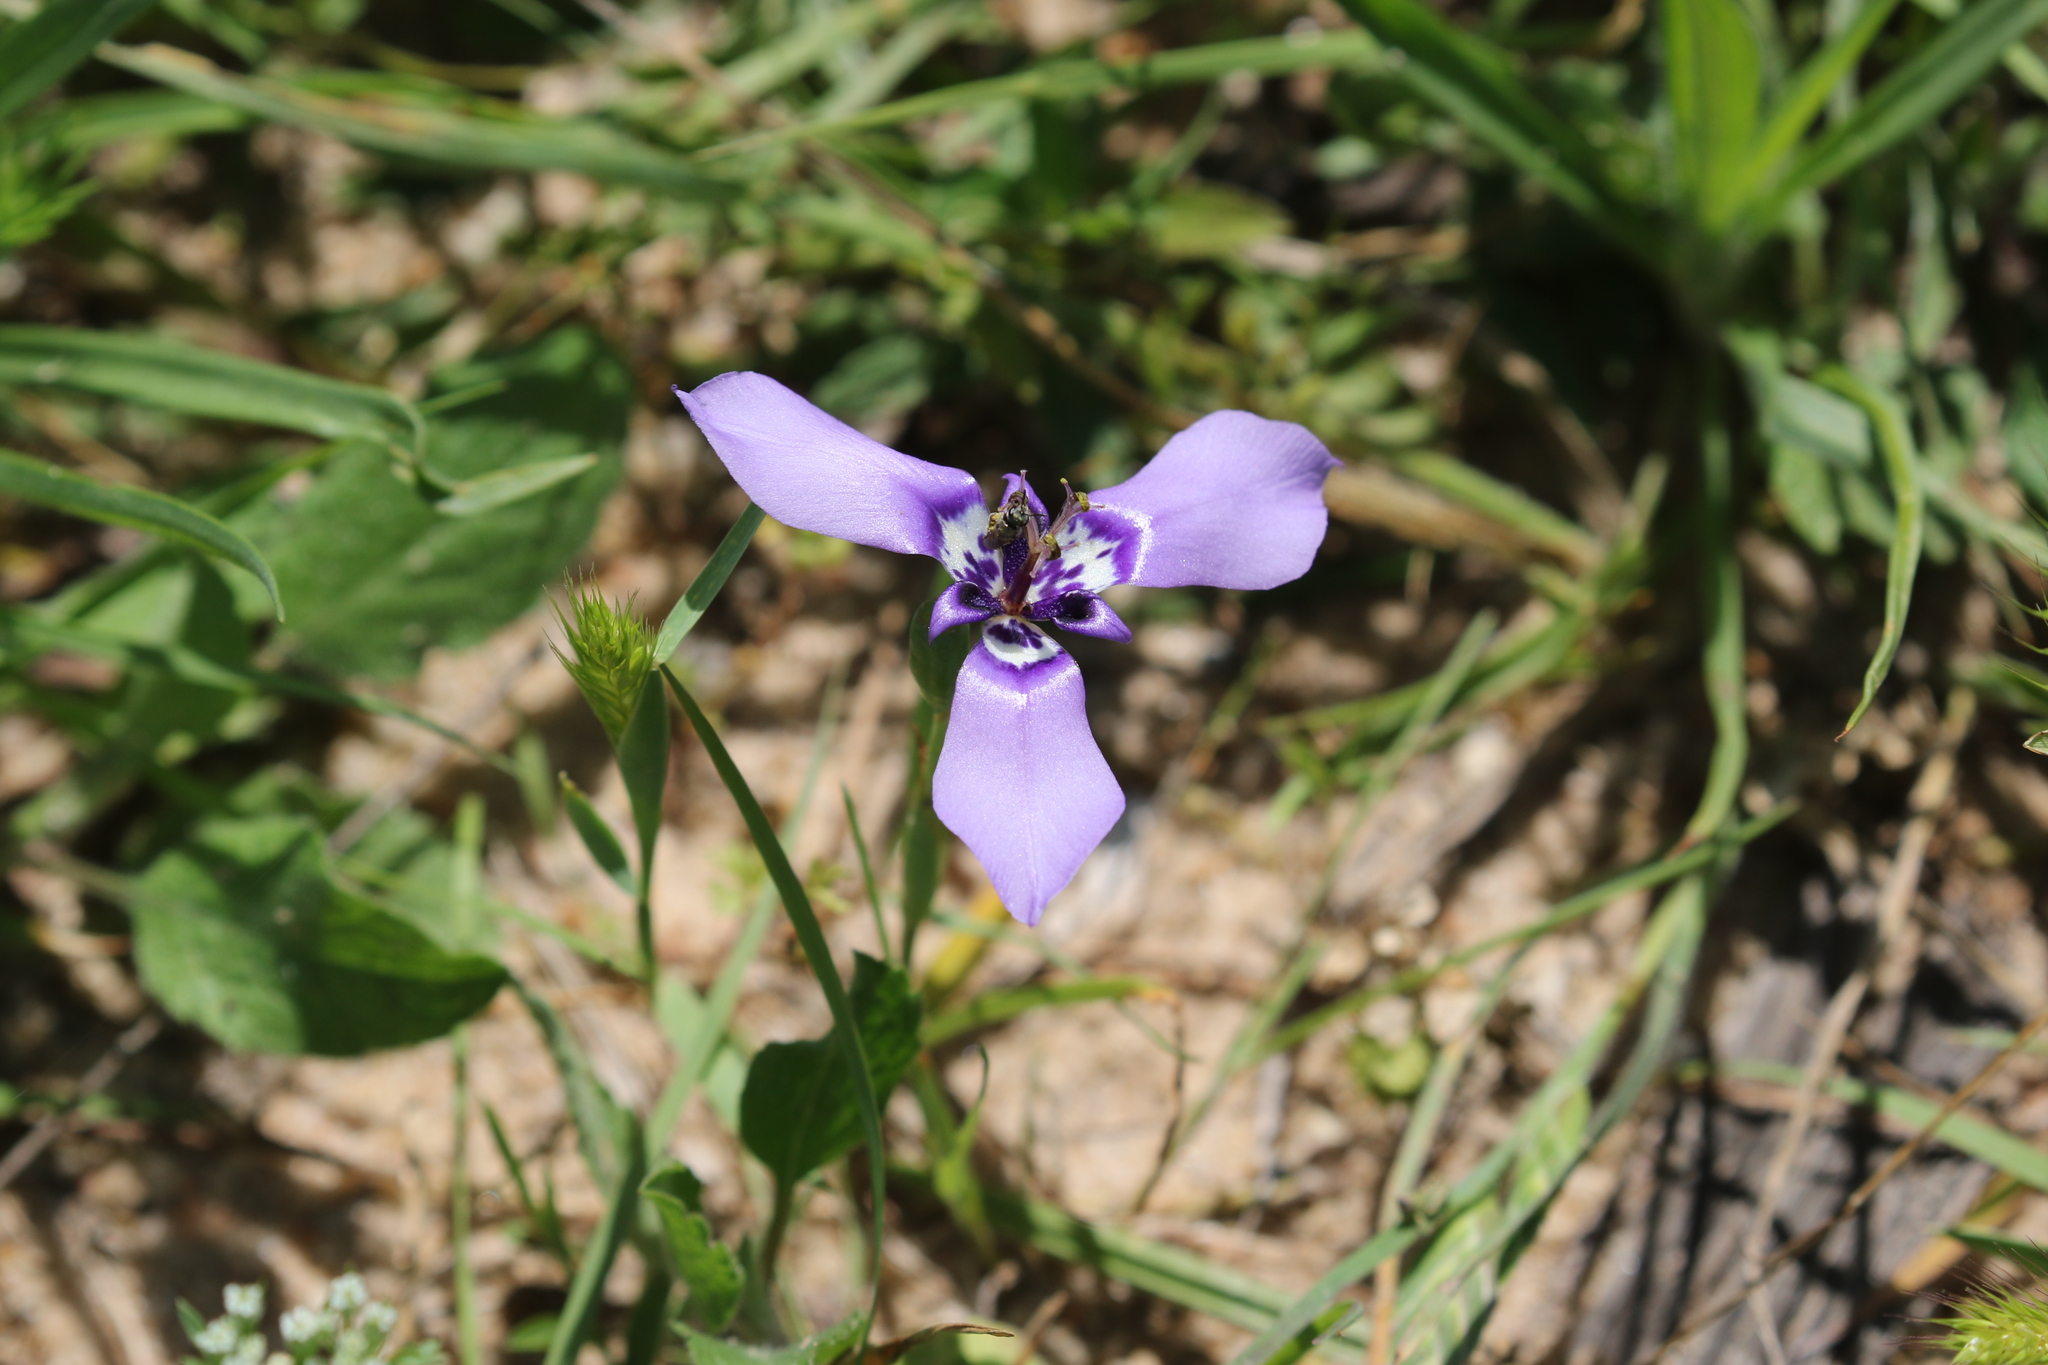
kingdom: Plantae
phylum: Tracheophyta
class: Liliopsida
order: Asparagales
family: Iridaceae
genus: Herbertia
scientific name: Herbertia lahue
